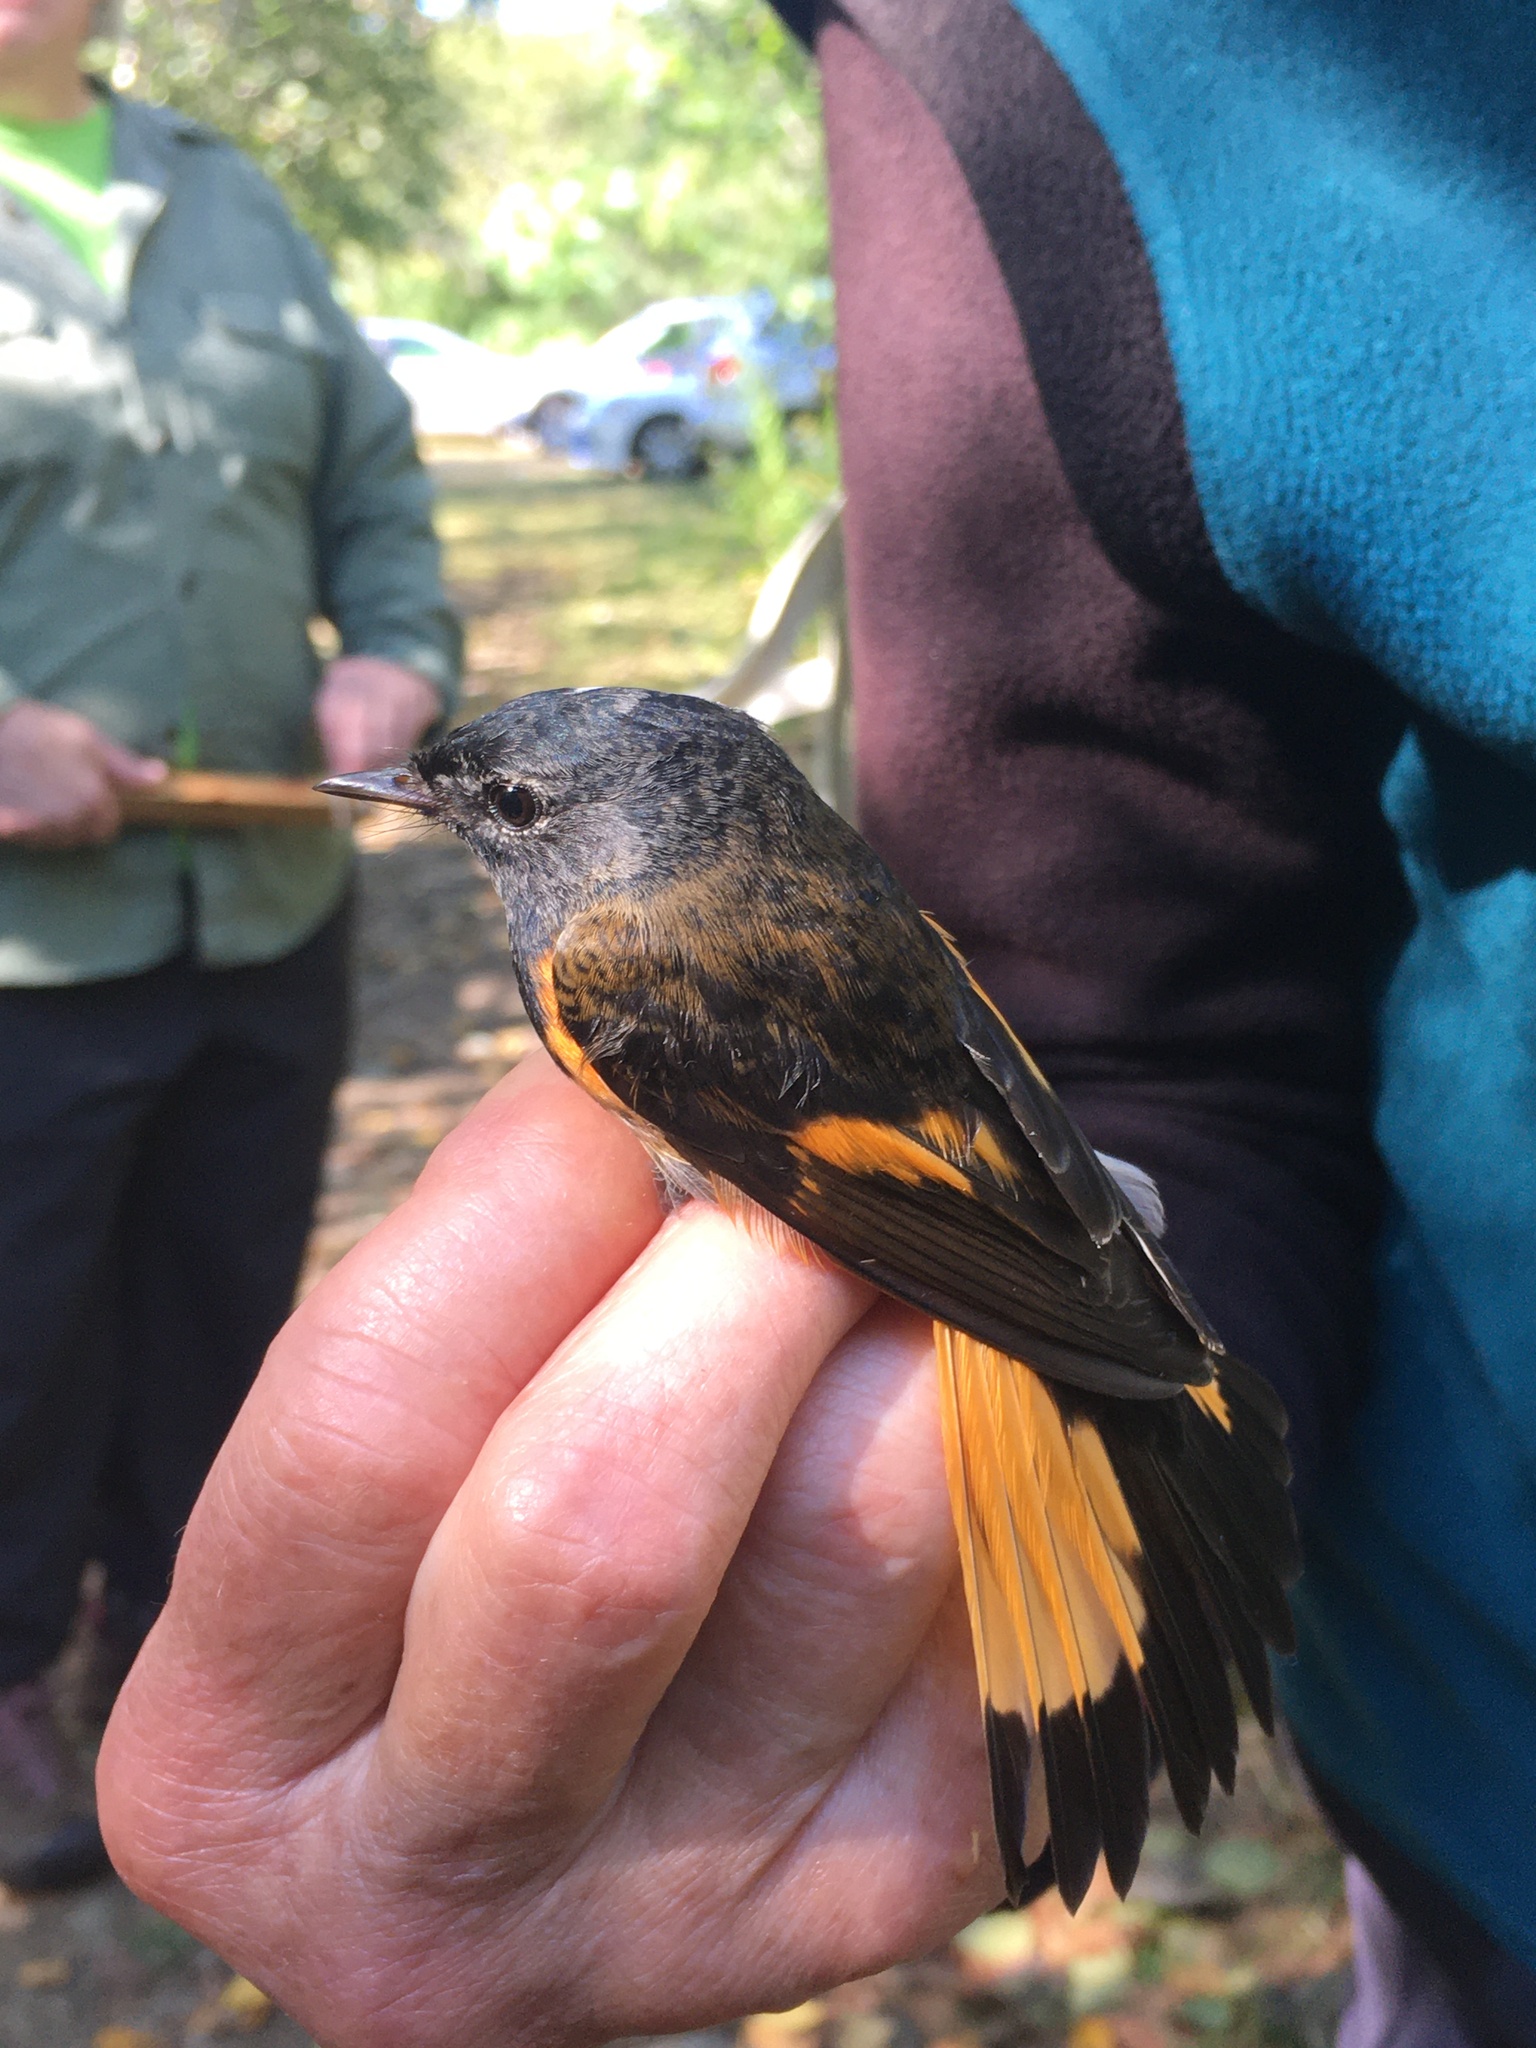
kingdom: Animalia
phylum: Chordata
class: Aves
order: Passeriformes
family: Parulidae
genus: Setophaga
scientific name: Setophaga ruticilla
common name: American redstart
